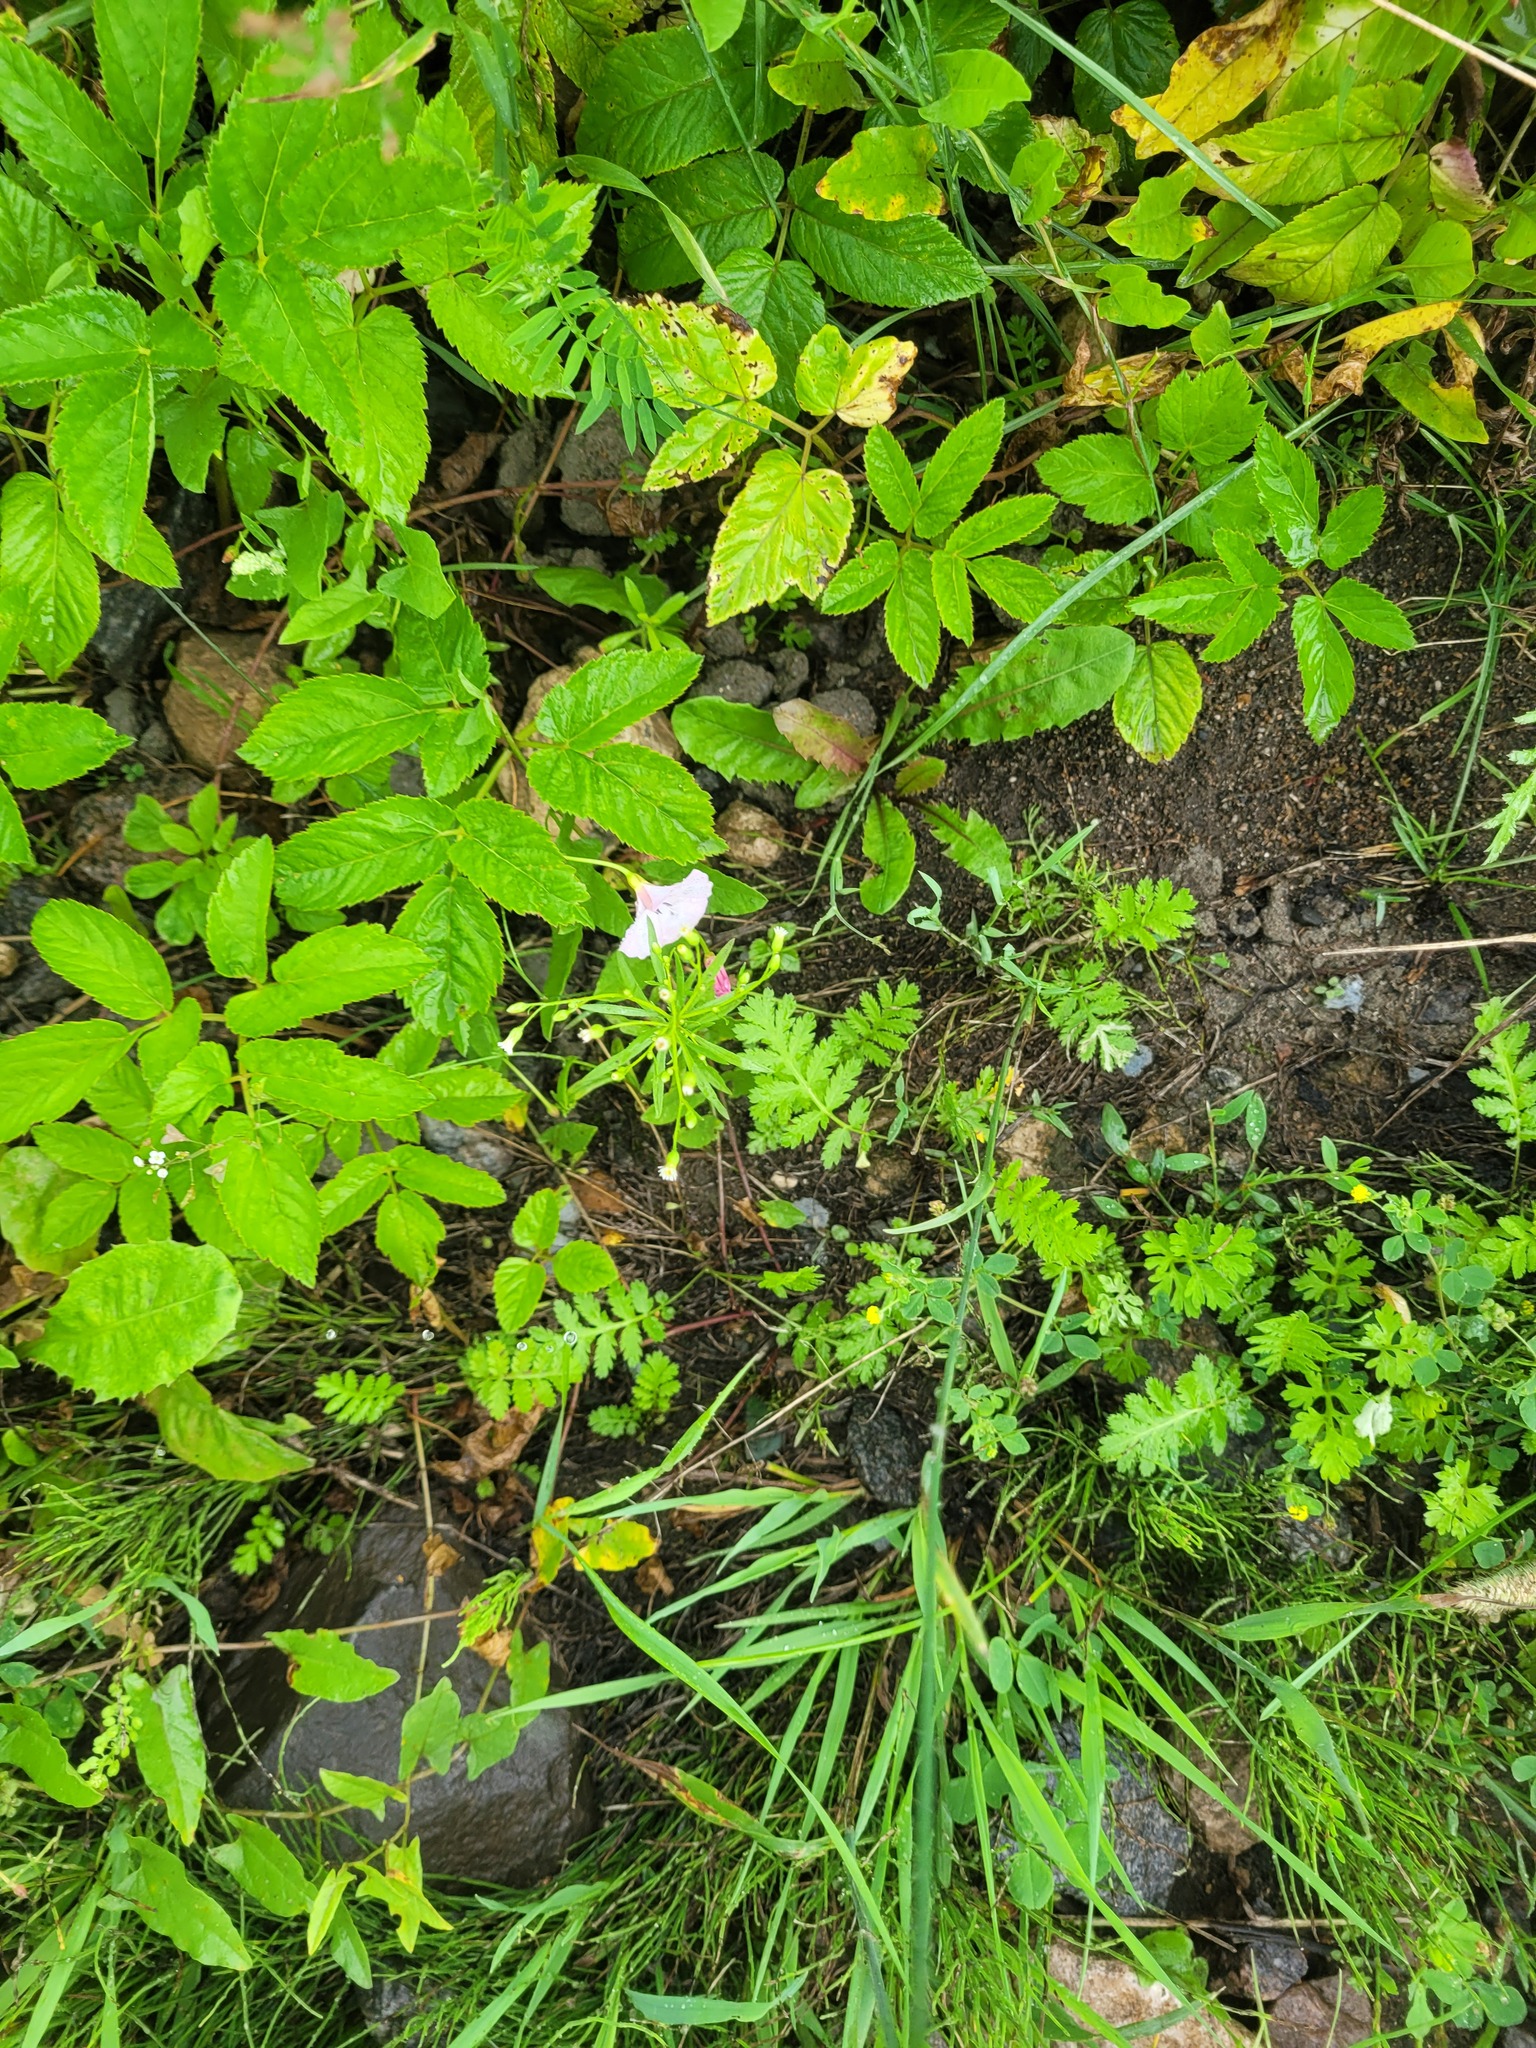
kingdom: Plantae
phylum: Tracheophyta
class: Magnoliopsida
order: Asterales
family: Asteraceae
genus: Erigeron
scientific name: Erigeron canadensis
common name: Canadian fleabane
